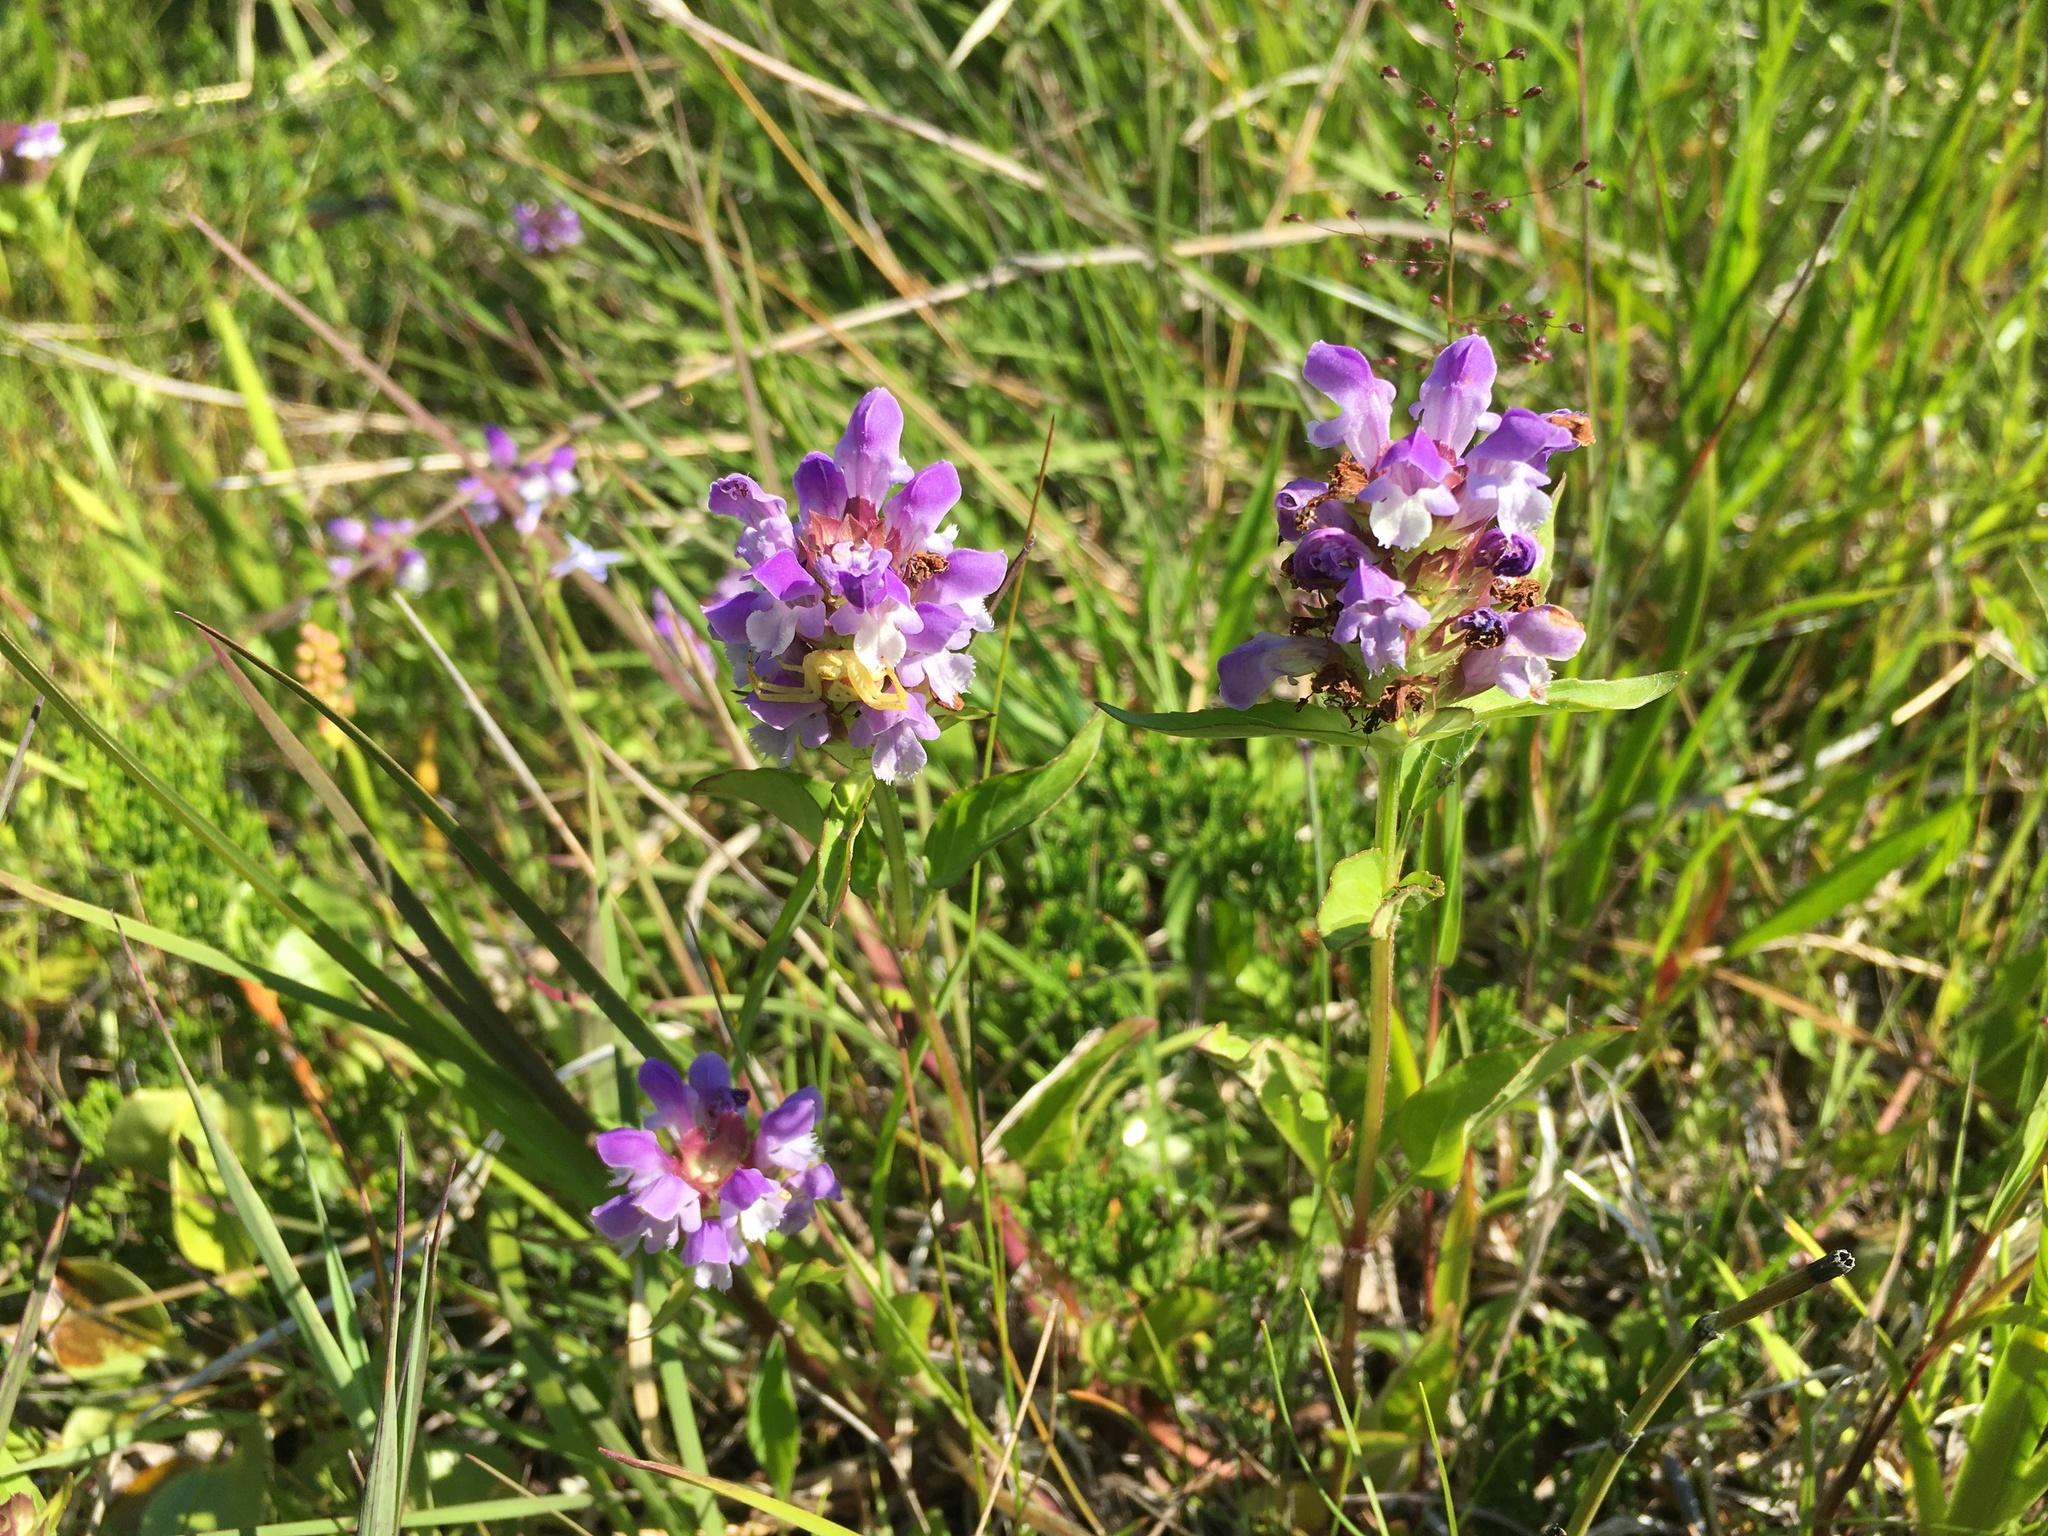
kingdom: Plantae
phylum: Tracheophyta
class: Magnoliopsida
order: Lamiales
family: Lamiaceae
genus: Prunella
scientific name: Prunella vulgaris
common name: Heal-all
